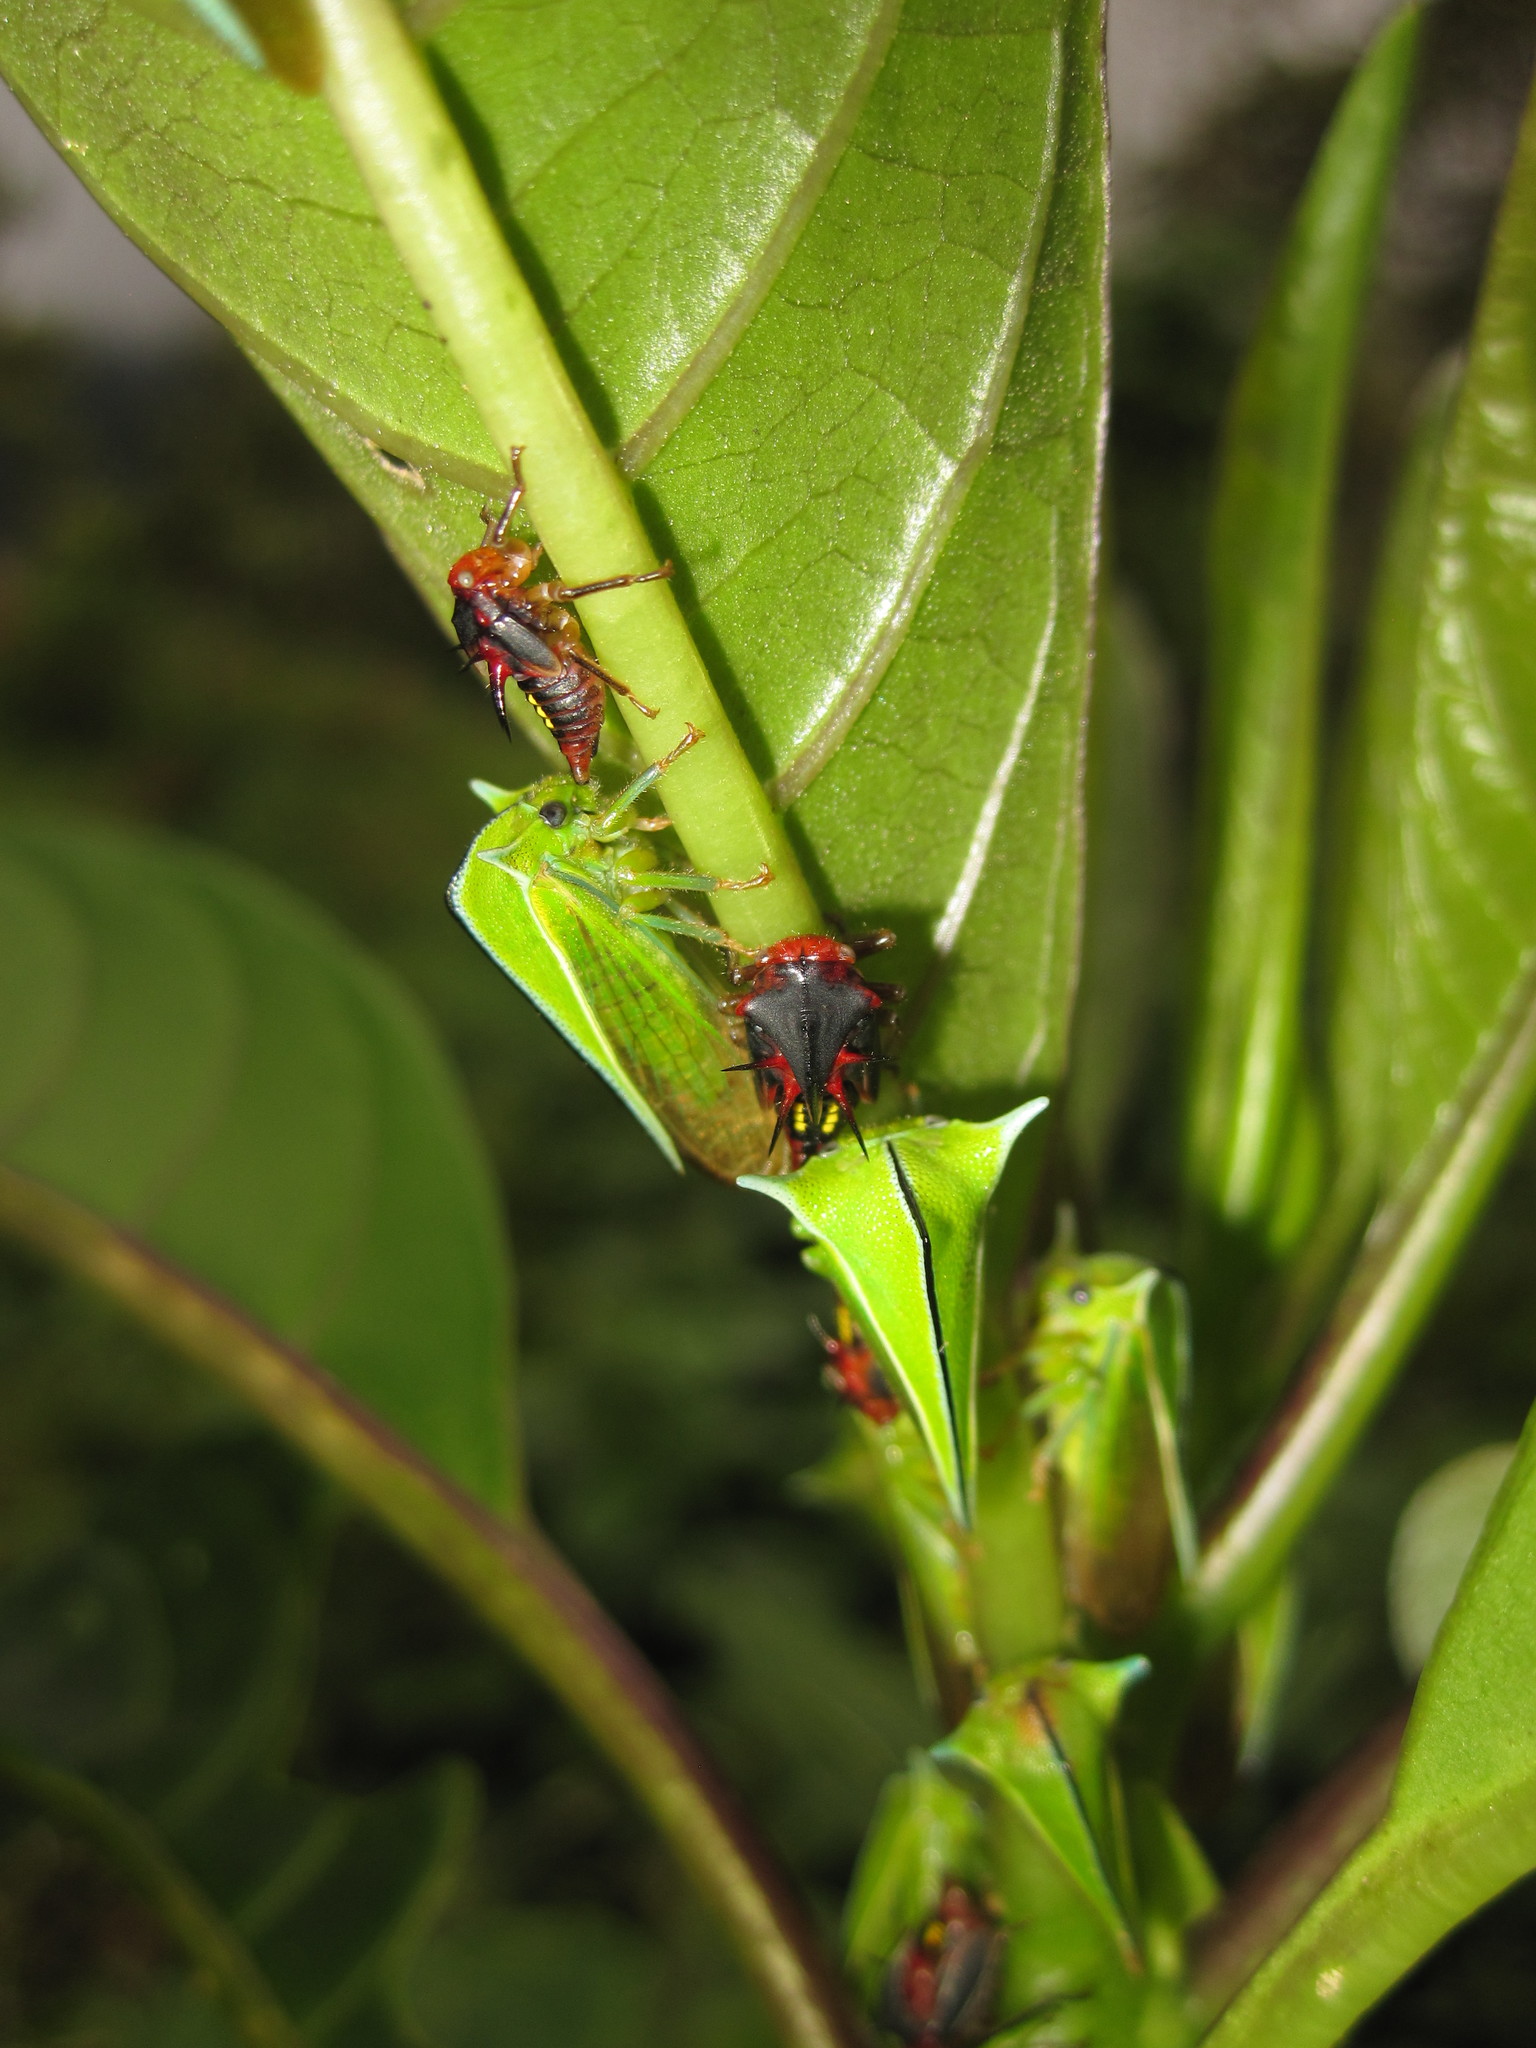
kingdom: Animalia
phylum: Arthropoda
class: Insecta
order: Hemiptera
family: Membracidae
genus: Alchisme
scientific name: Alchisme inermis
